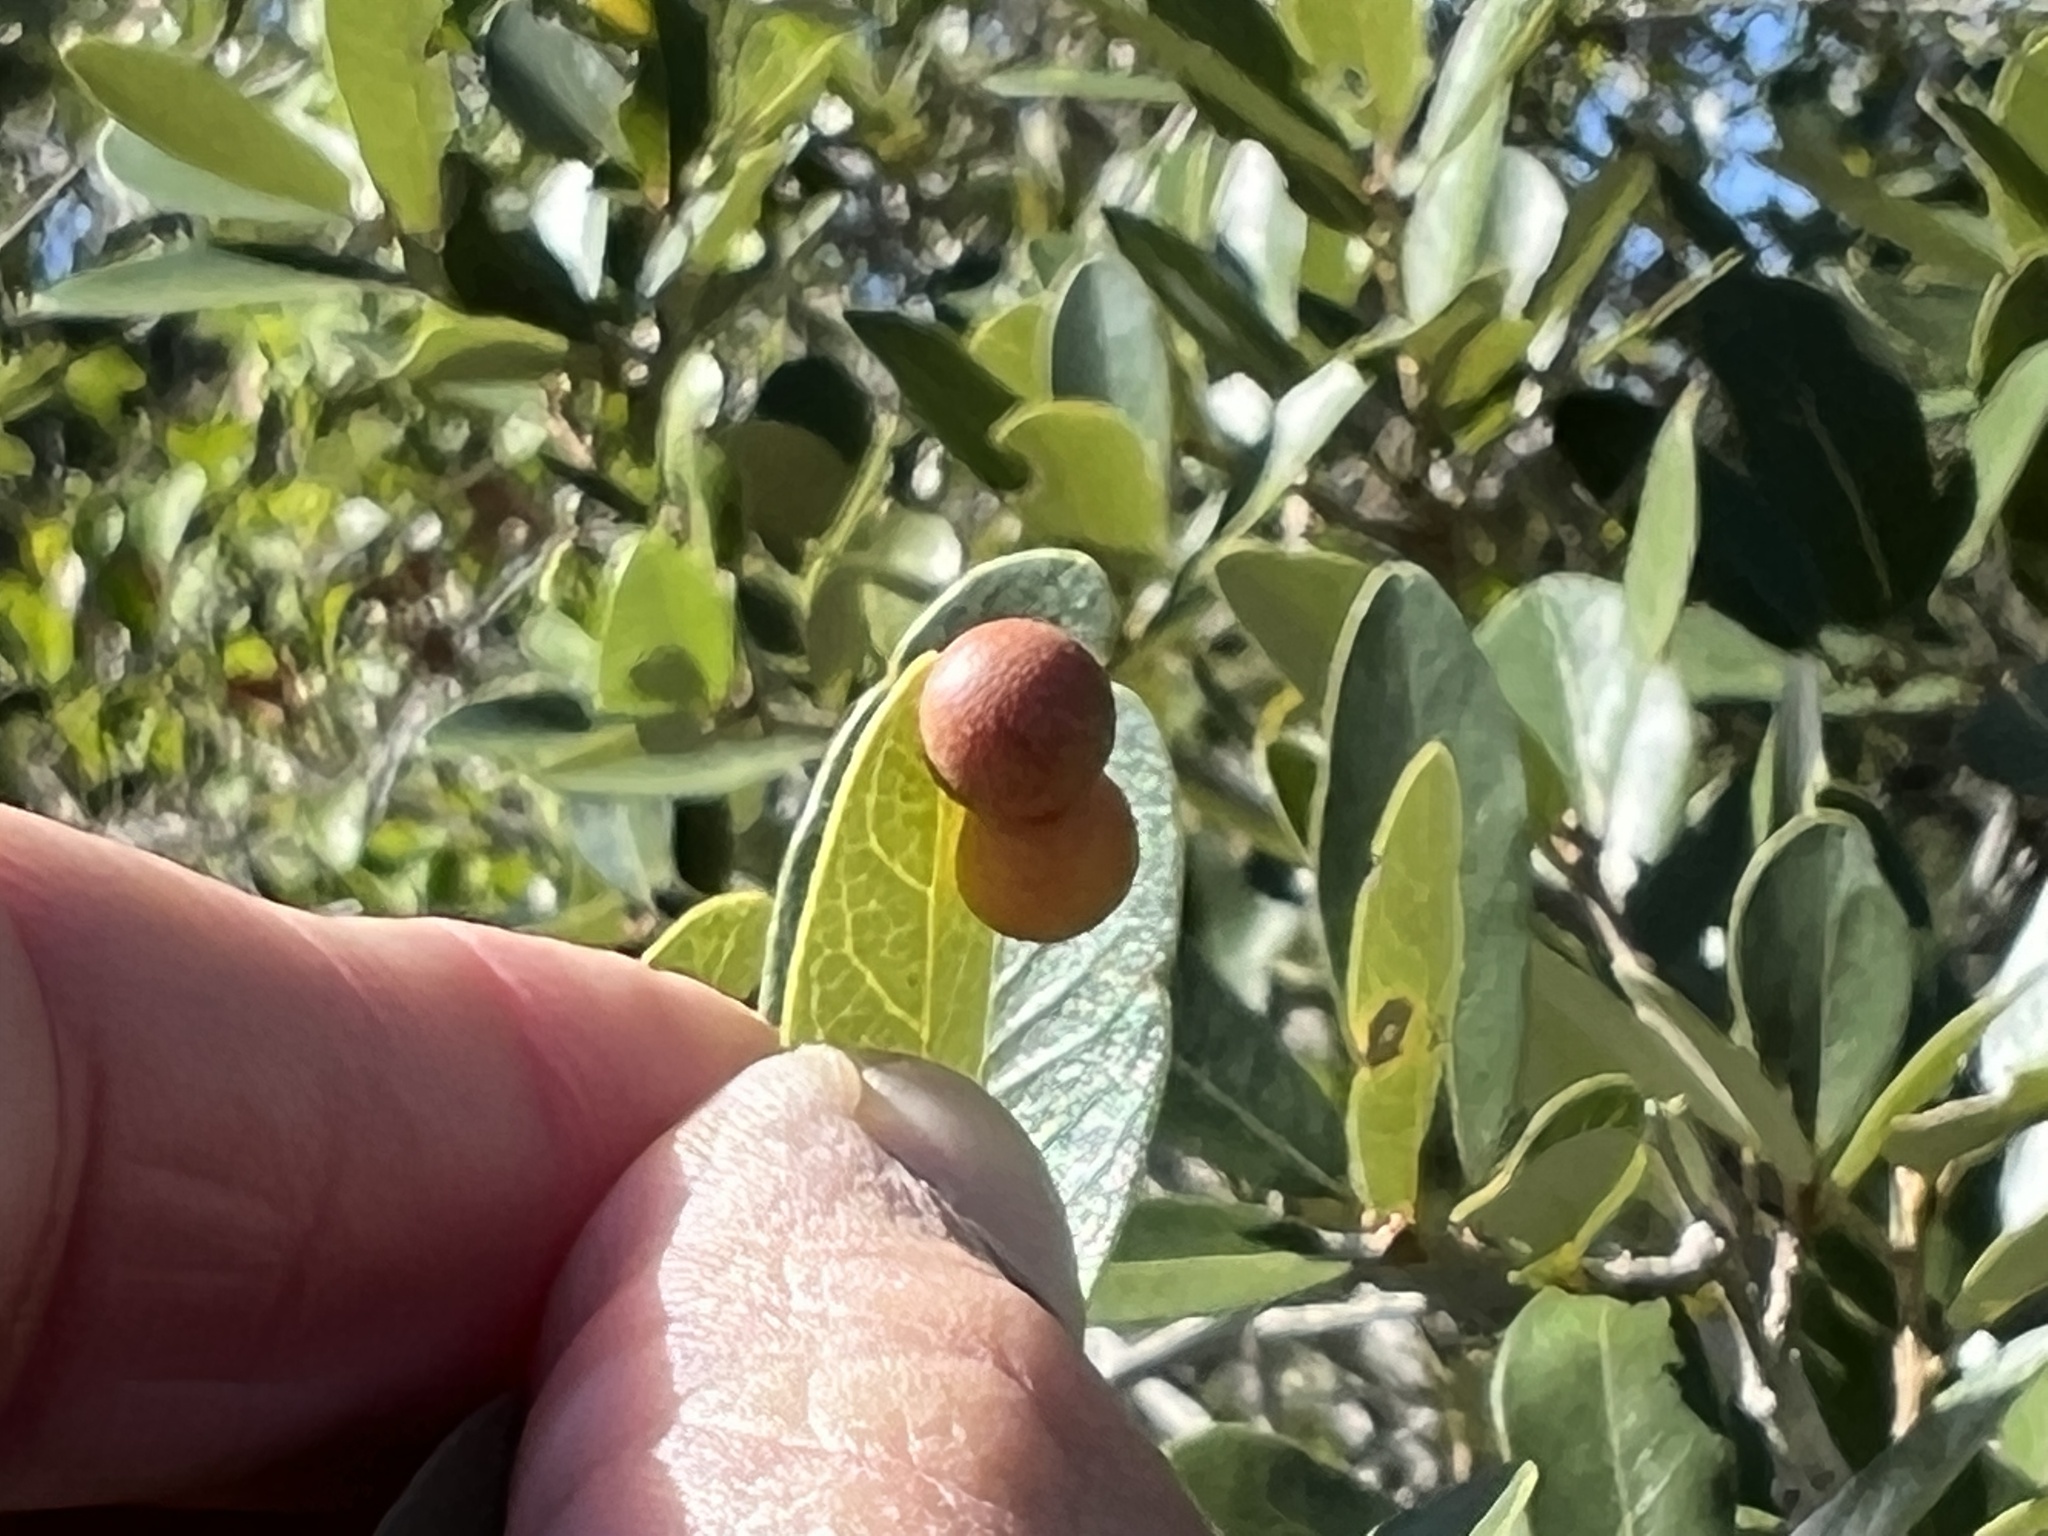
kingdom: Animalia
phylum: Arthropoda
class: Insecta
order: Hymenoptera
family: Cynipidae
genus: Belonocnema
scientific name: Belonocnema kinseyi
